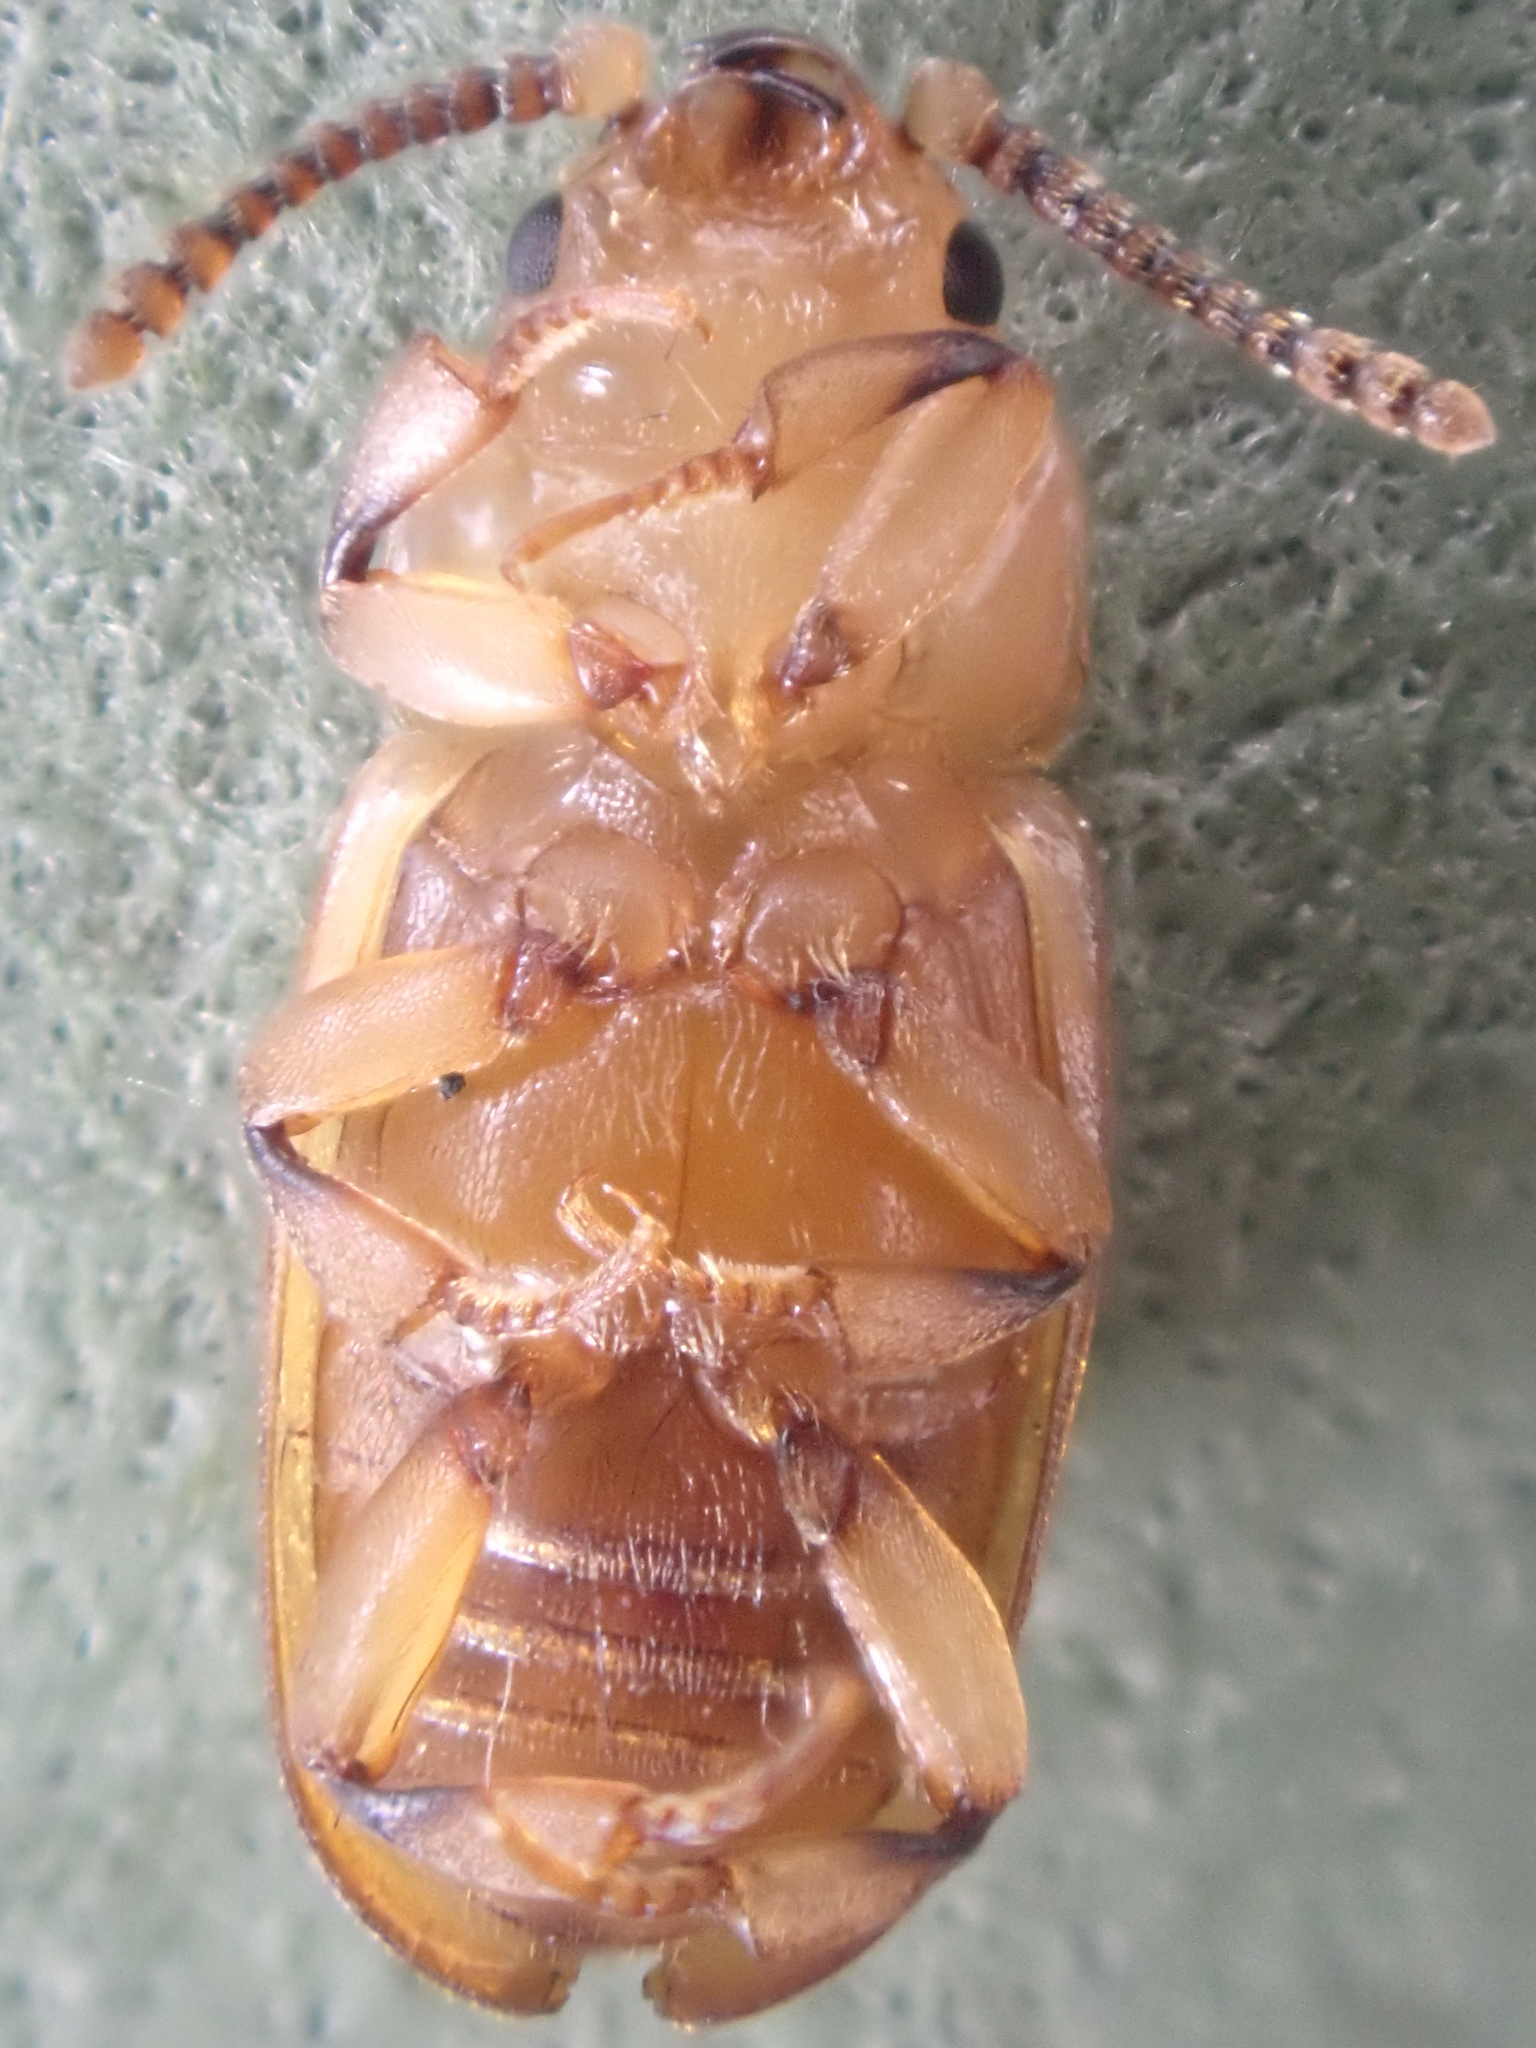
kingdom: Animalia
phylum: Arthropoda
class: Insecta
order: Coleoptera
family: Cryptophagidae
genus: Antherophagus
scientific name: Antherophagus ochraceus
